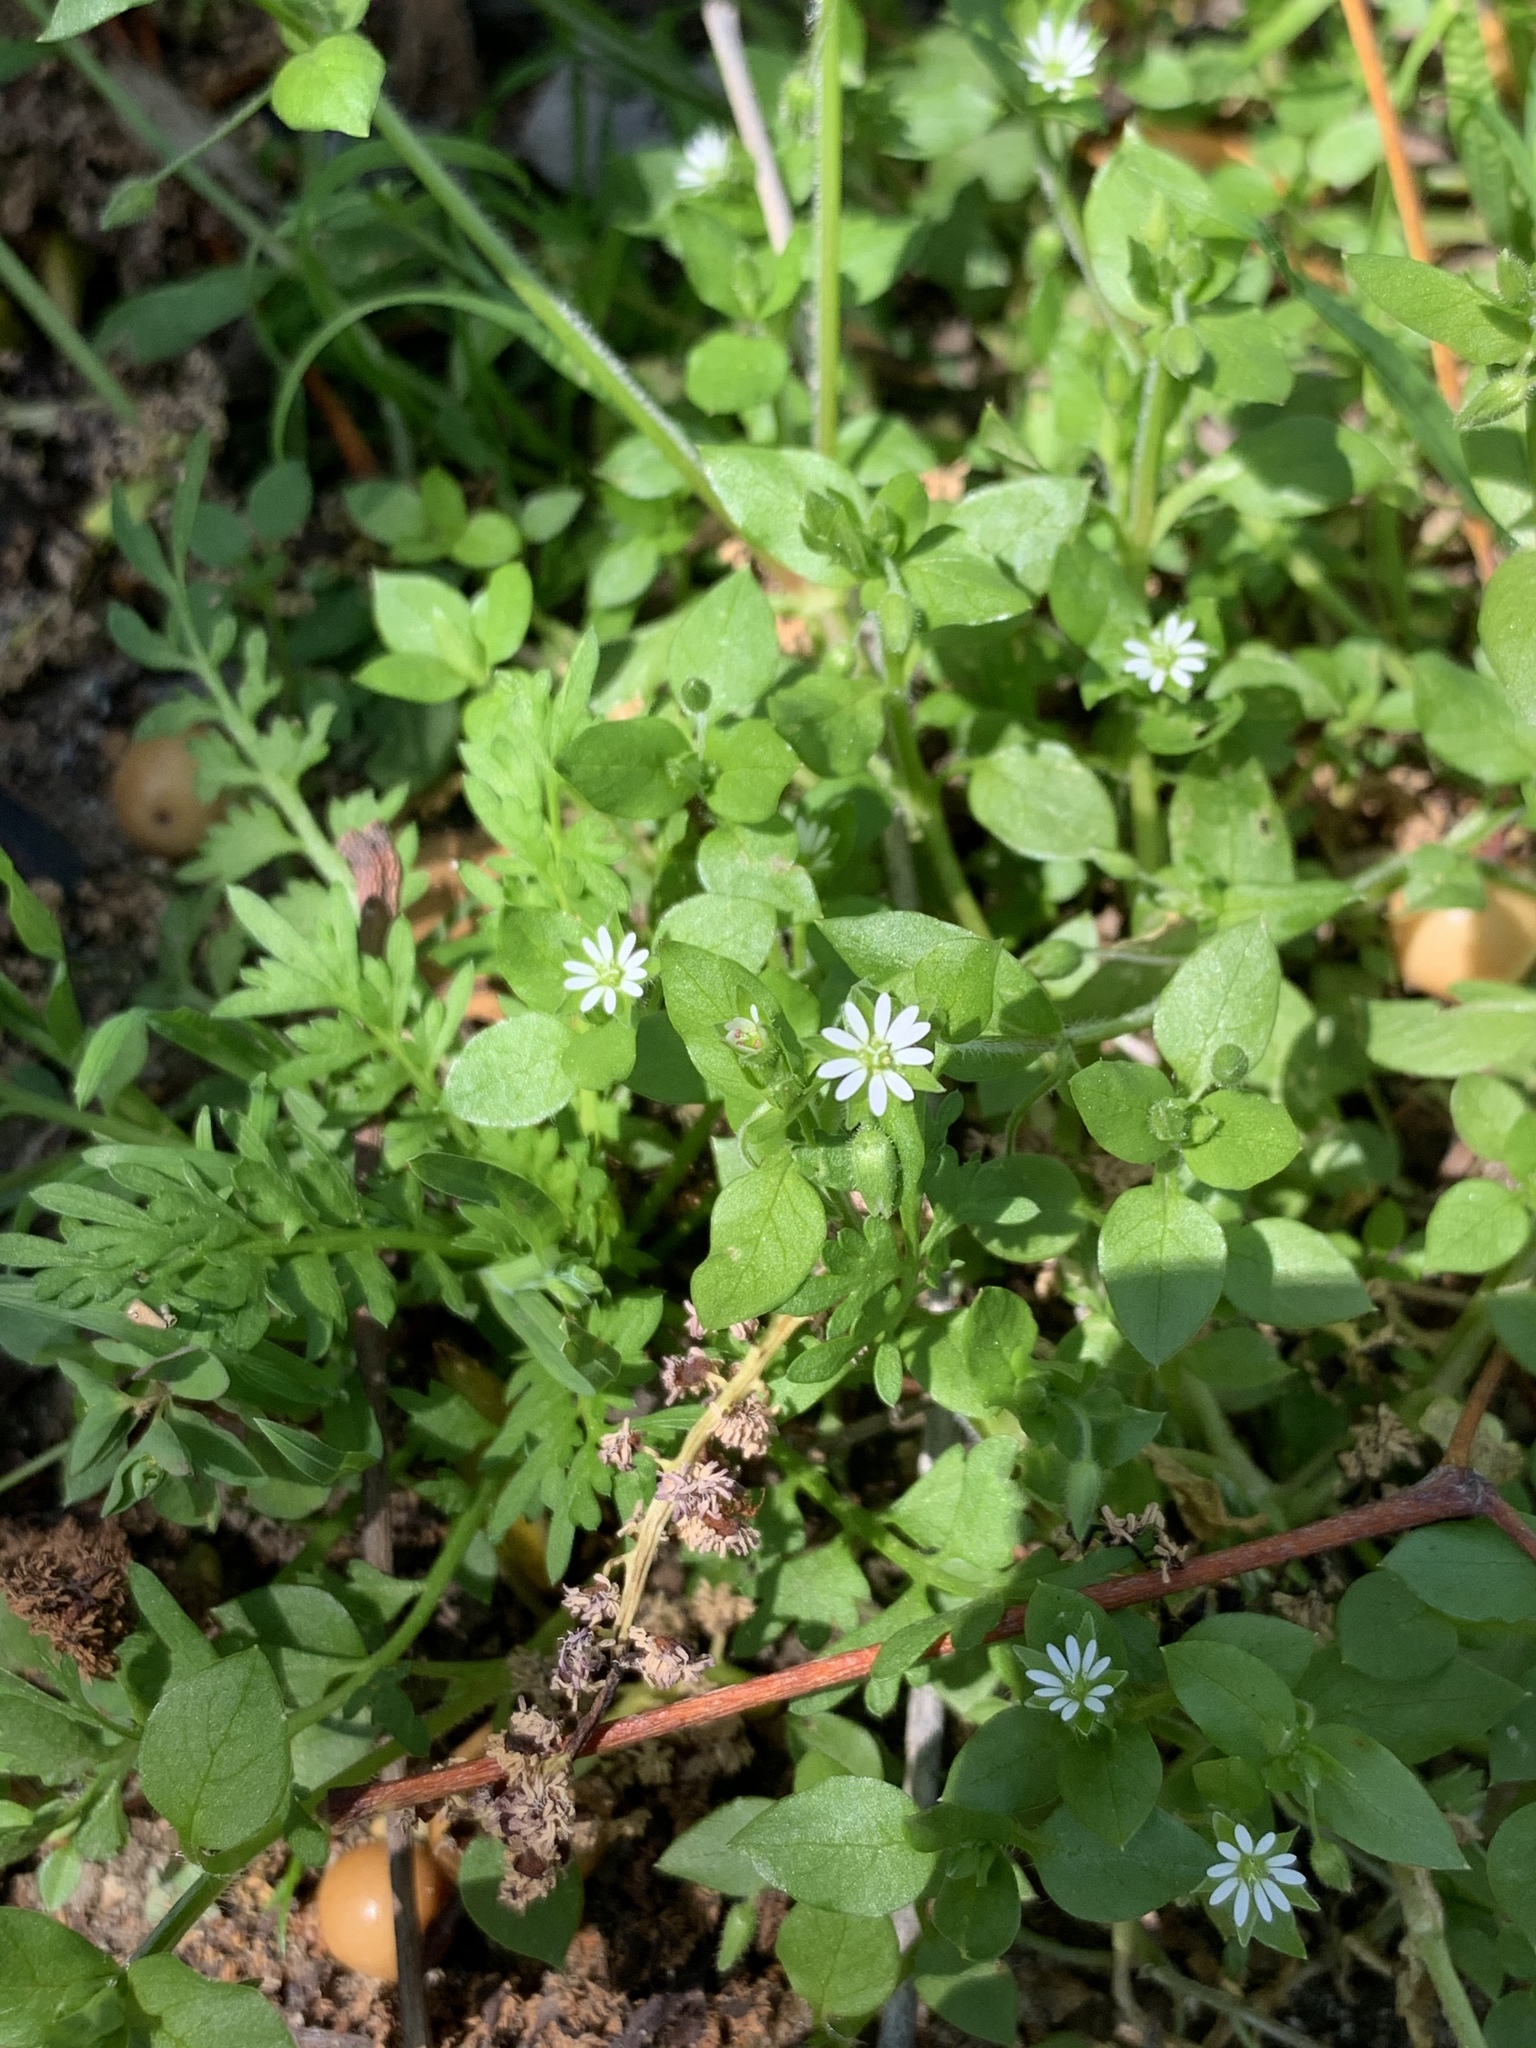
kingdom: Plantae
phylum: Tracheophyta
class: Magnoliopsida
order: Caryophyllales
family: Caryophyllaceae
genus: Stellaria
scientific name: Stellaria media
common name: Common chickweed
